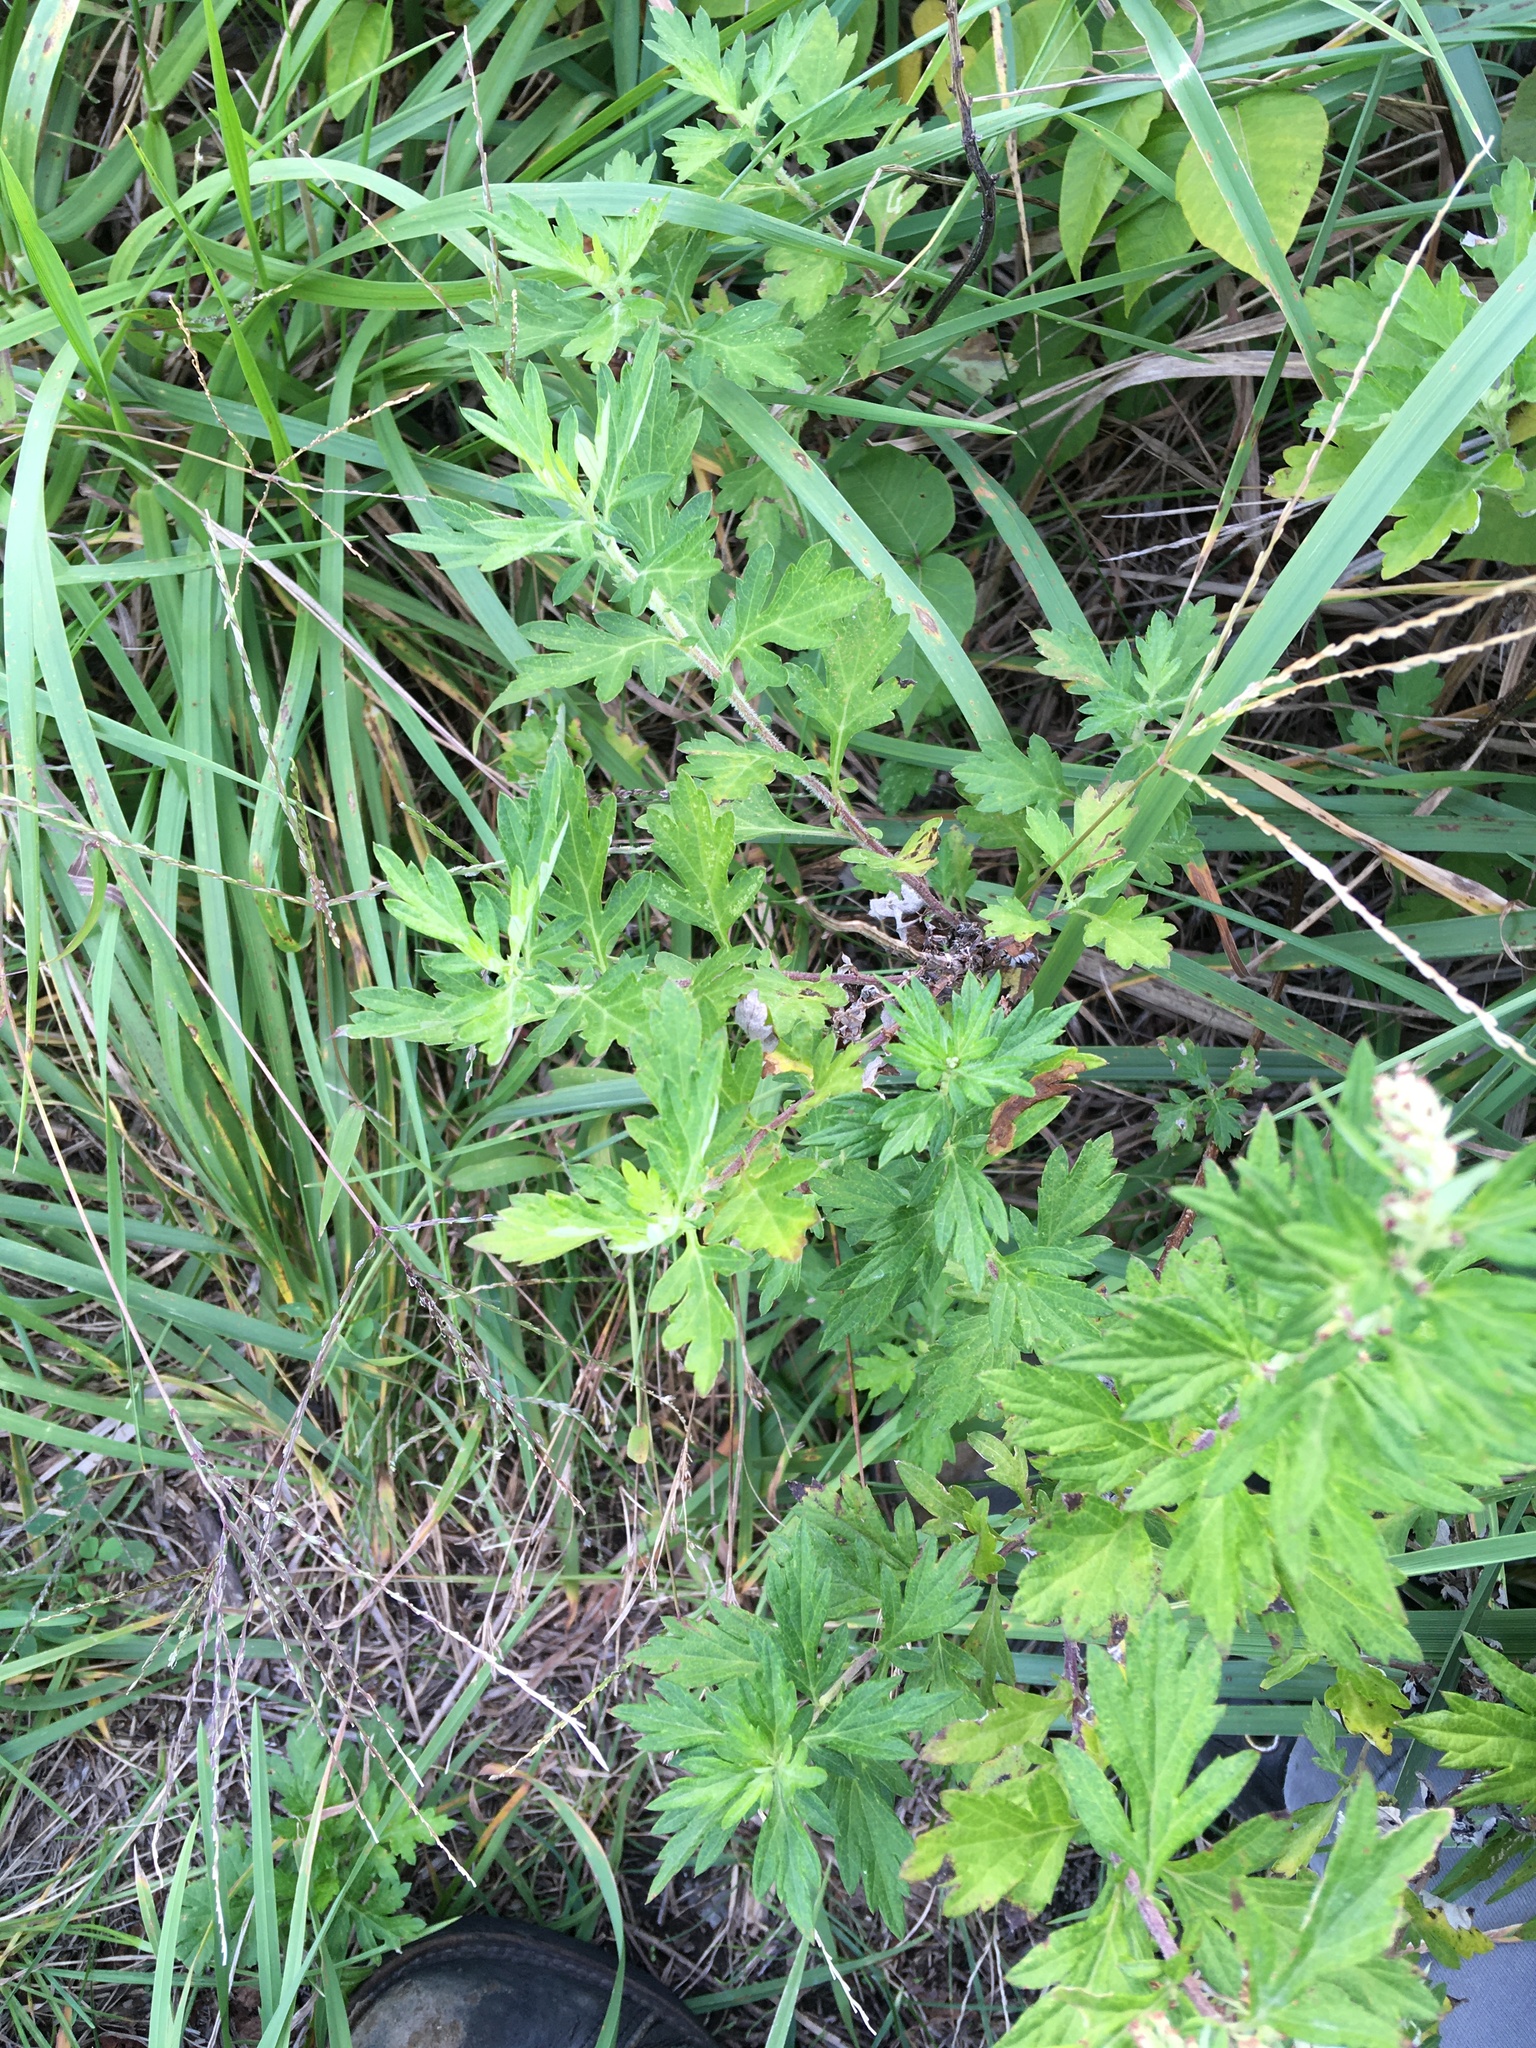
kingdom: Plantae
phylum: Tracheophyta
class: Magnoliopsida
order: Asterales
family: Asteraceae
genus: Artemisia
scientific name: Artemisia vulgaris
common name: Mugwort
